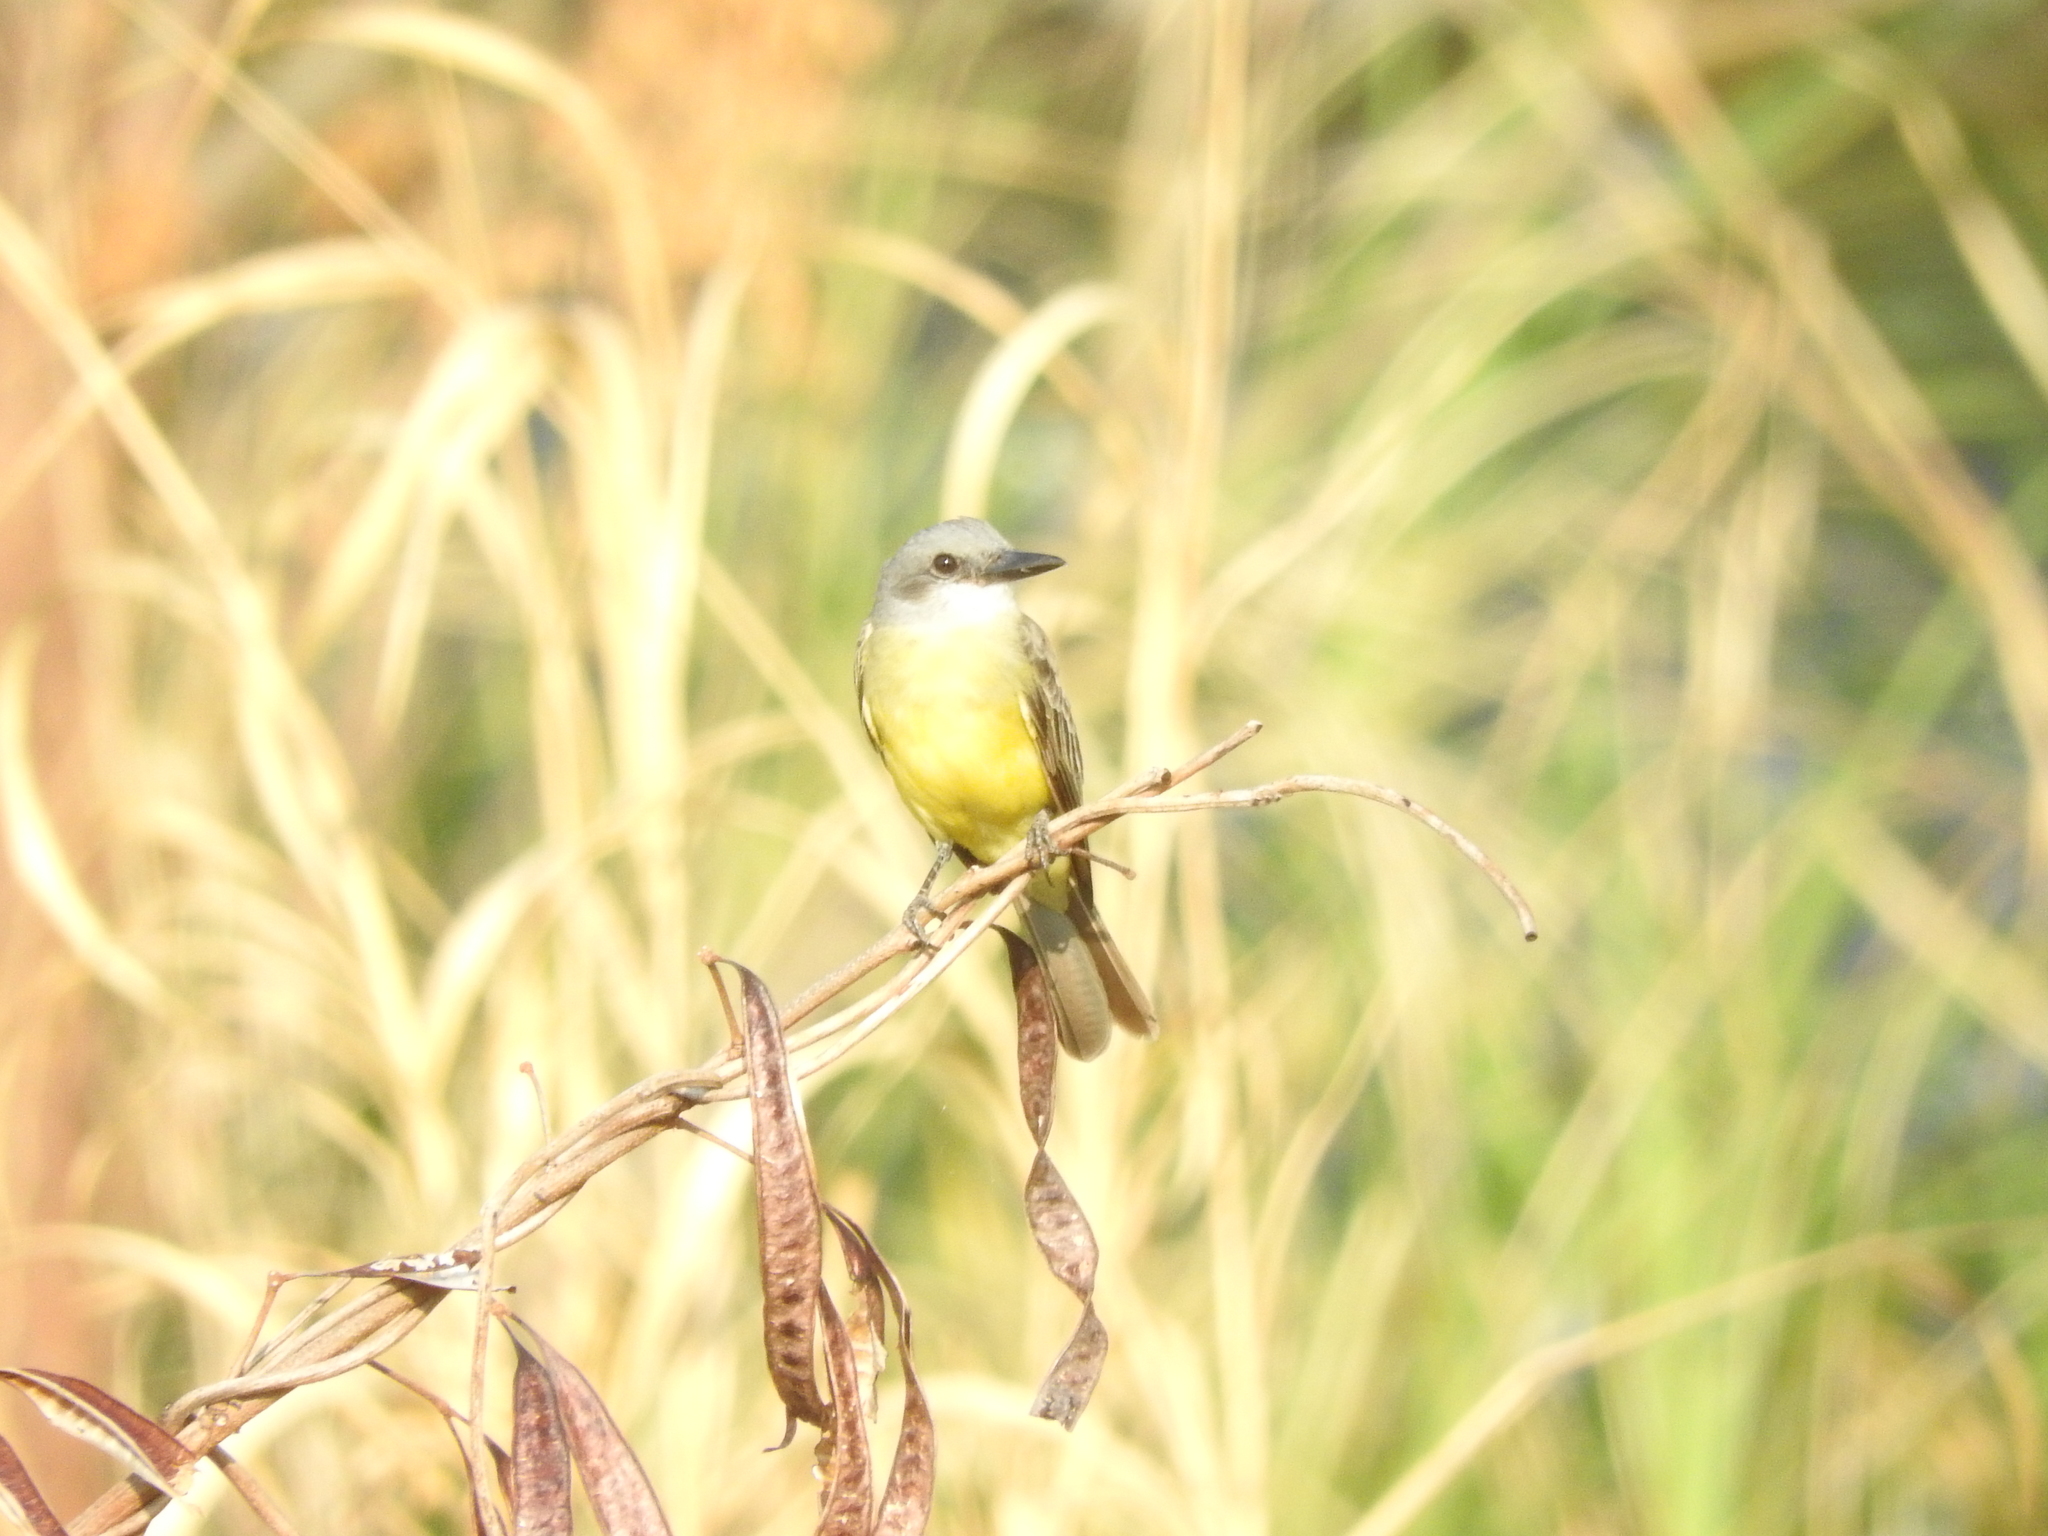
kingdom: Animalia
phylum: Chordata
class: Aves
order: Passeriformes
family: Tyrannidae
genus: Tyrannus
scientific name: Tyrannus melancholicus
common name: Tropical kingbird
